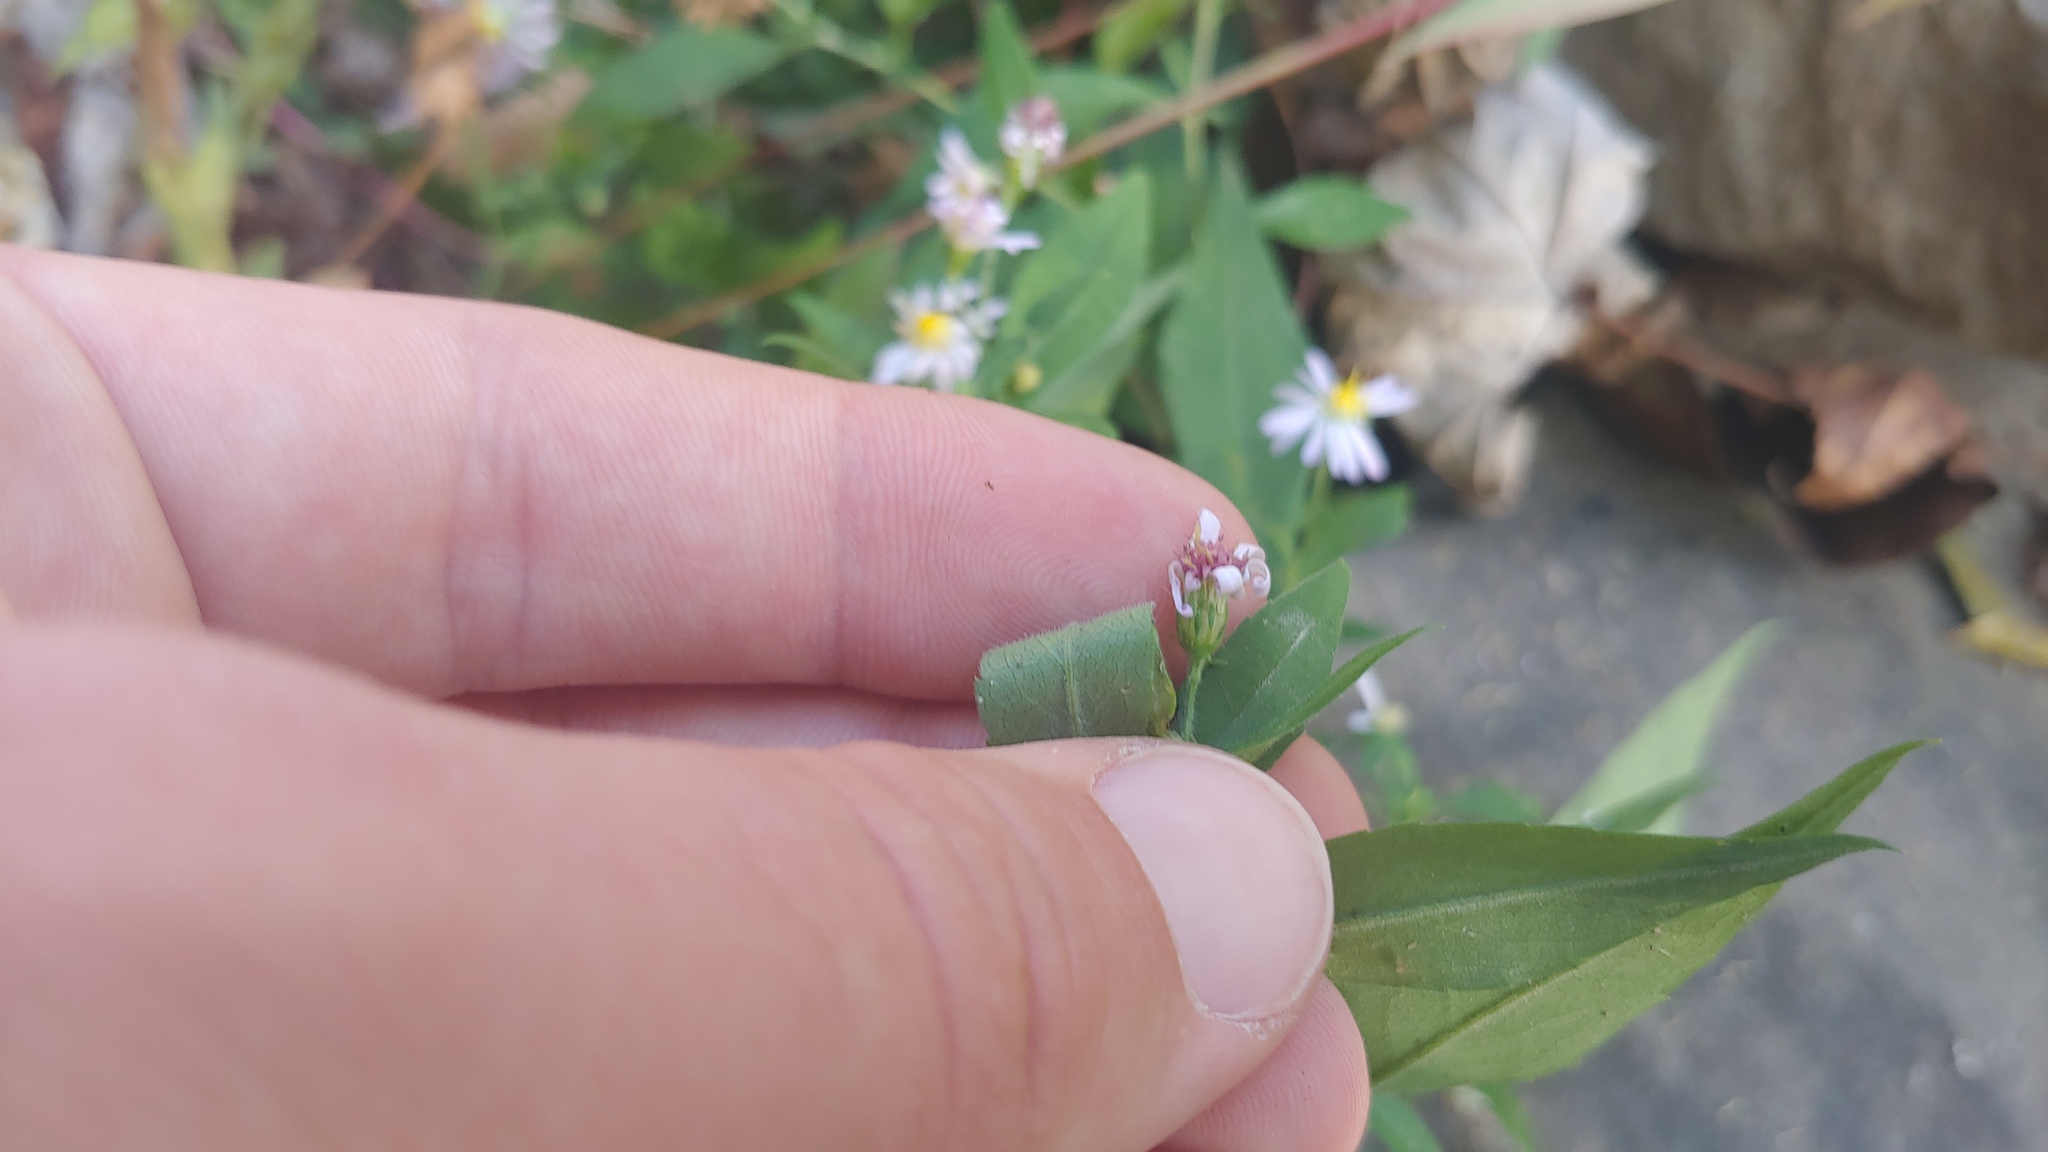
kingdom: Plantae
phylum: Tracheophyta
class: Magnoliopsida
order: Asterales
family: Asteraceae
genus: Symphyotrichum
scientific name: Symphyotrichum ontarionis
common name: Bottomland aster
